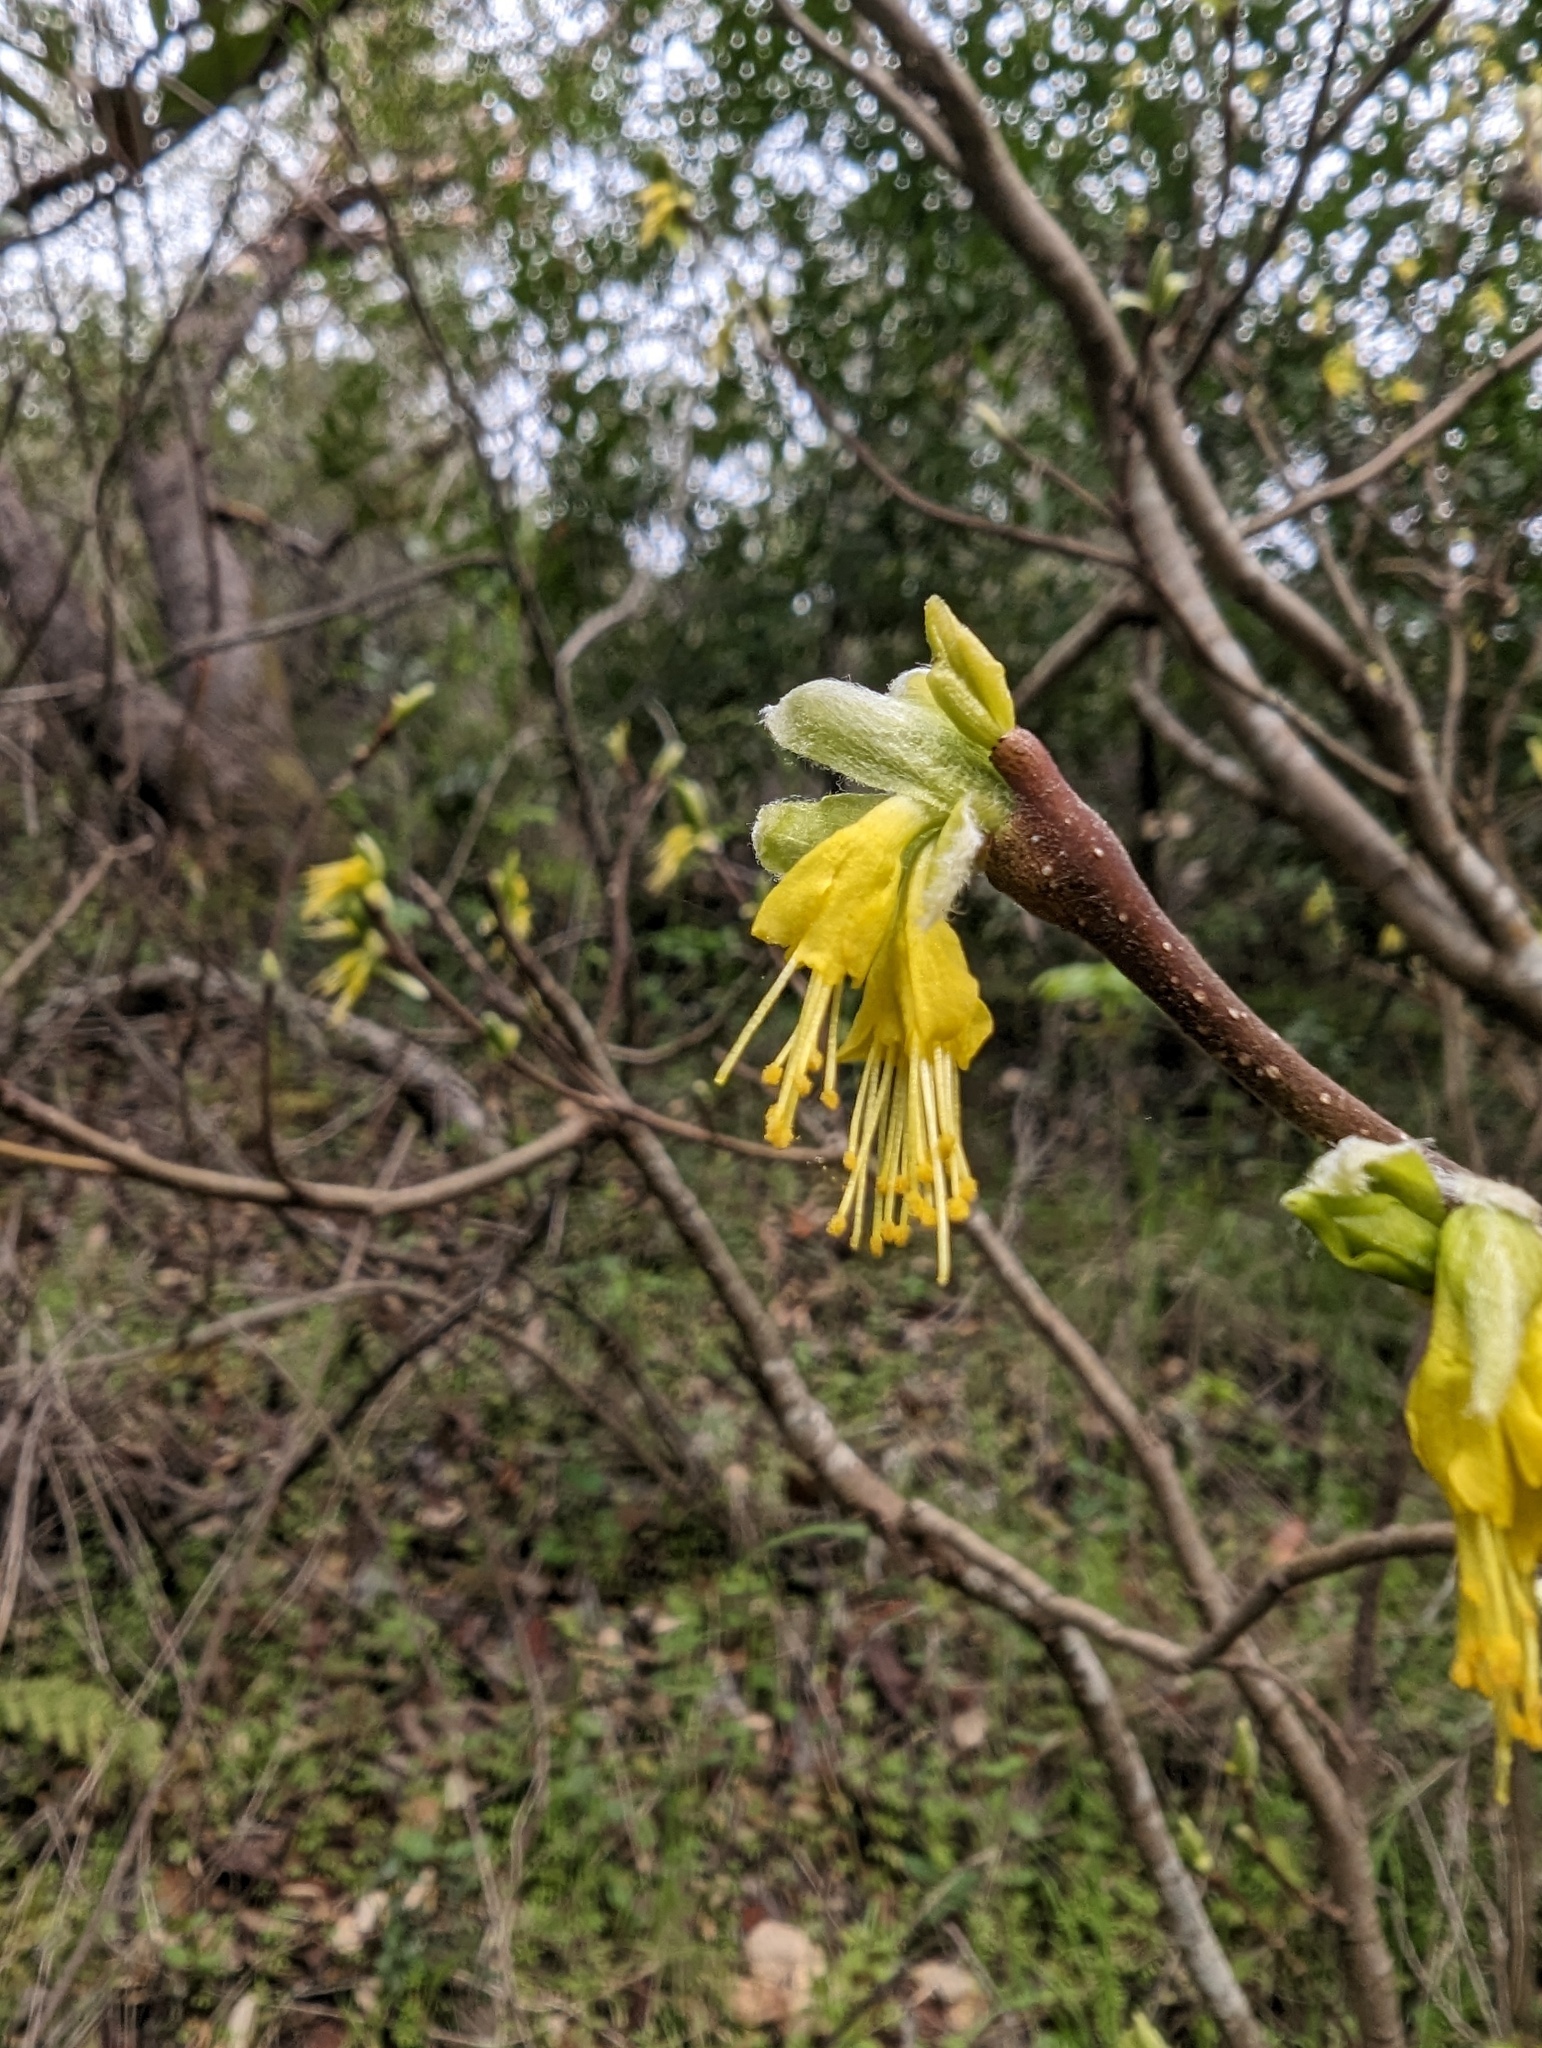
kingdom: Plantae
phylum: Tracheophyta
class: Magnoliopsida
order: Malvales
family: Thymelaeaceae
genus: Dirca
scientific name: Dirca occidentalis
